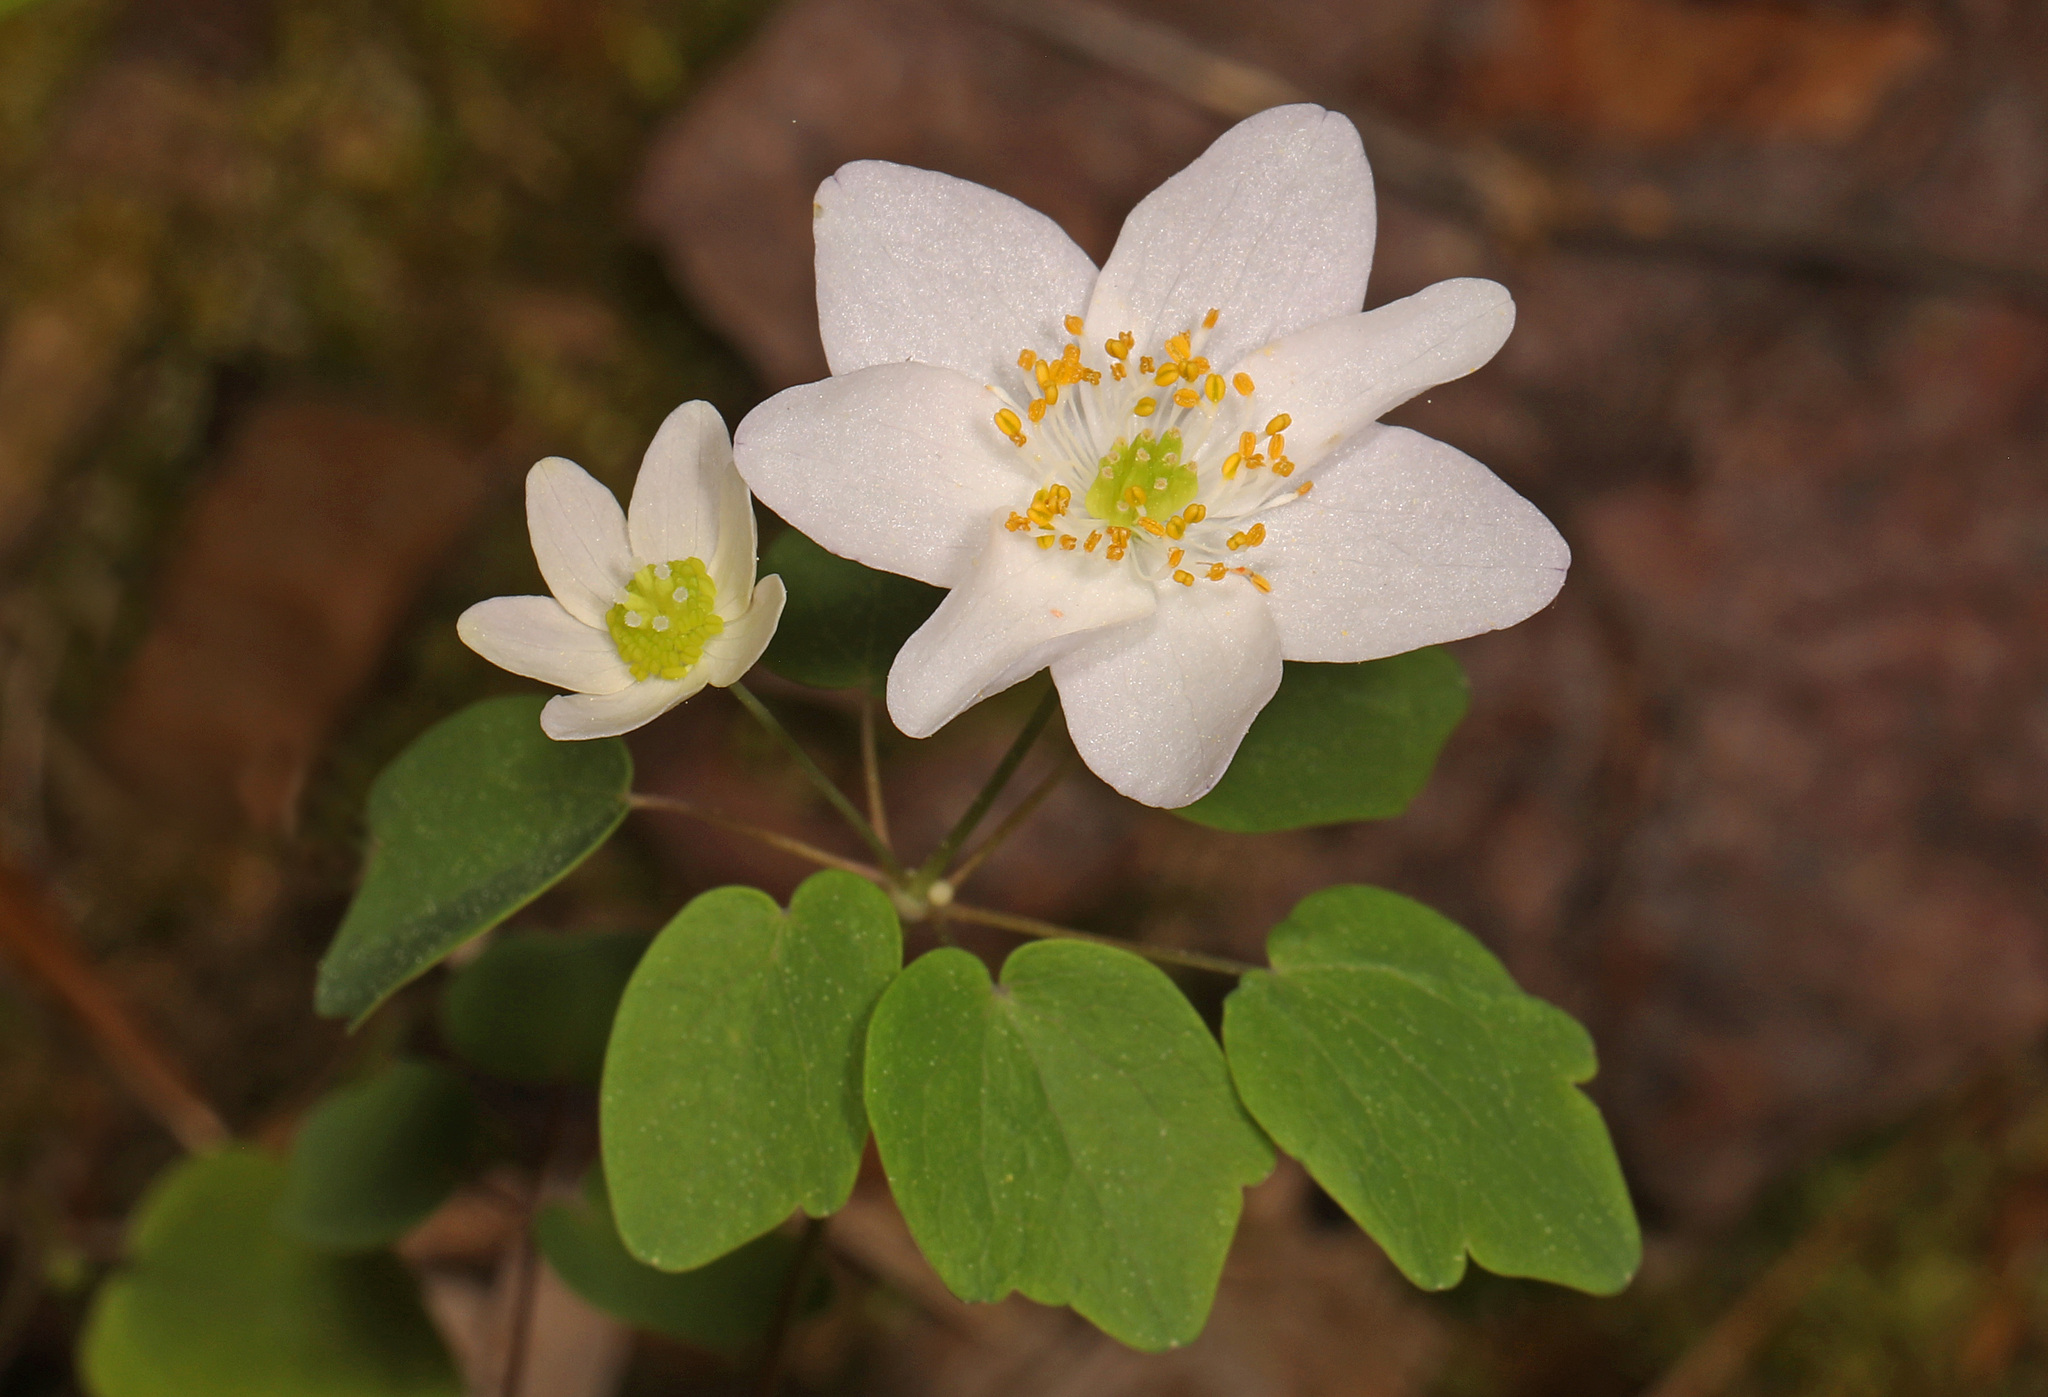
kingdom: Plantae
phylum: Tracheophyta
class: Magnoliopsida
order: Ranunculales
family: Ranunculaceae
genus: Thalictrum
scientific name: Thalictrum thalictroides
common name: Rue-anemone
